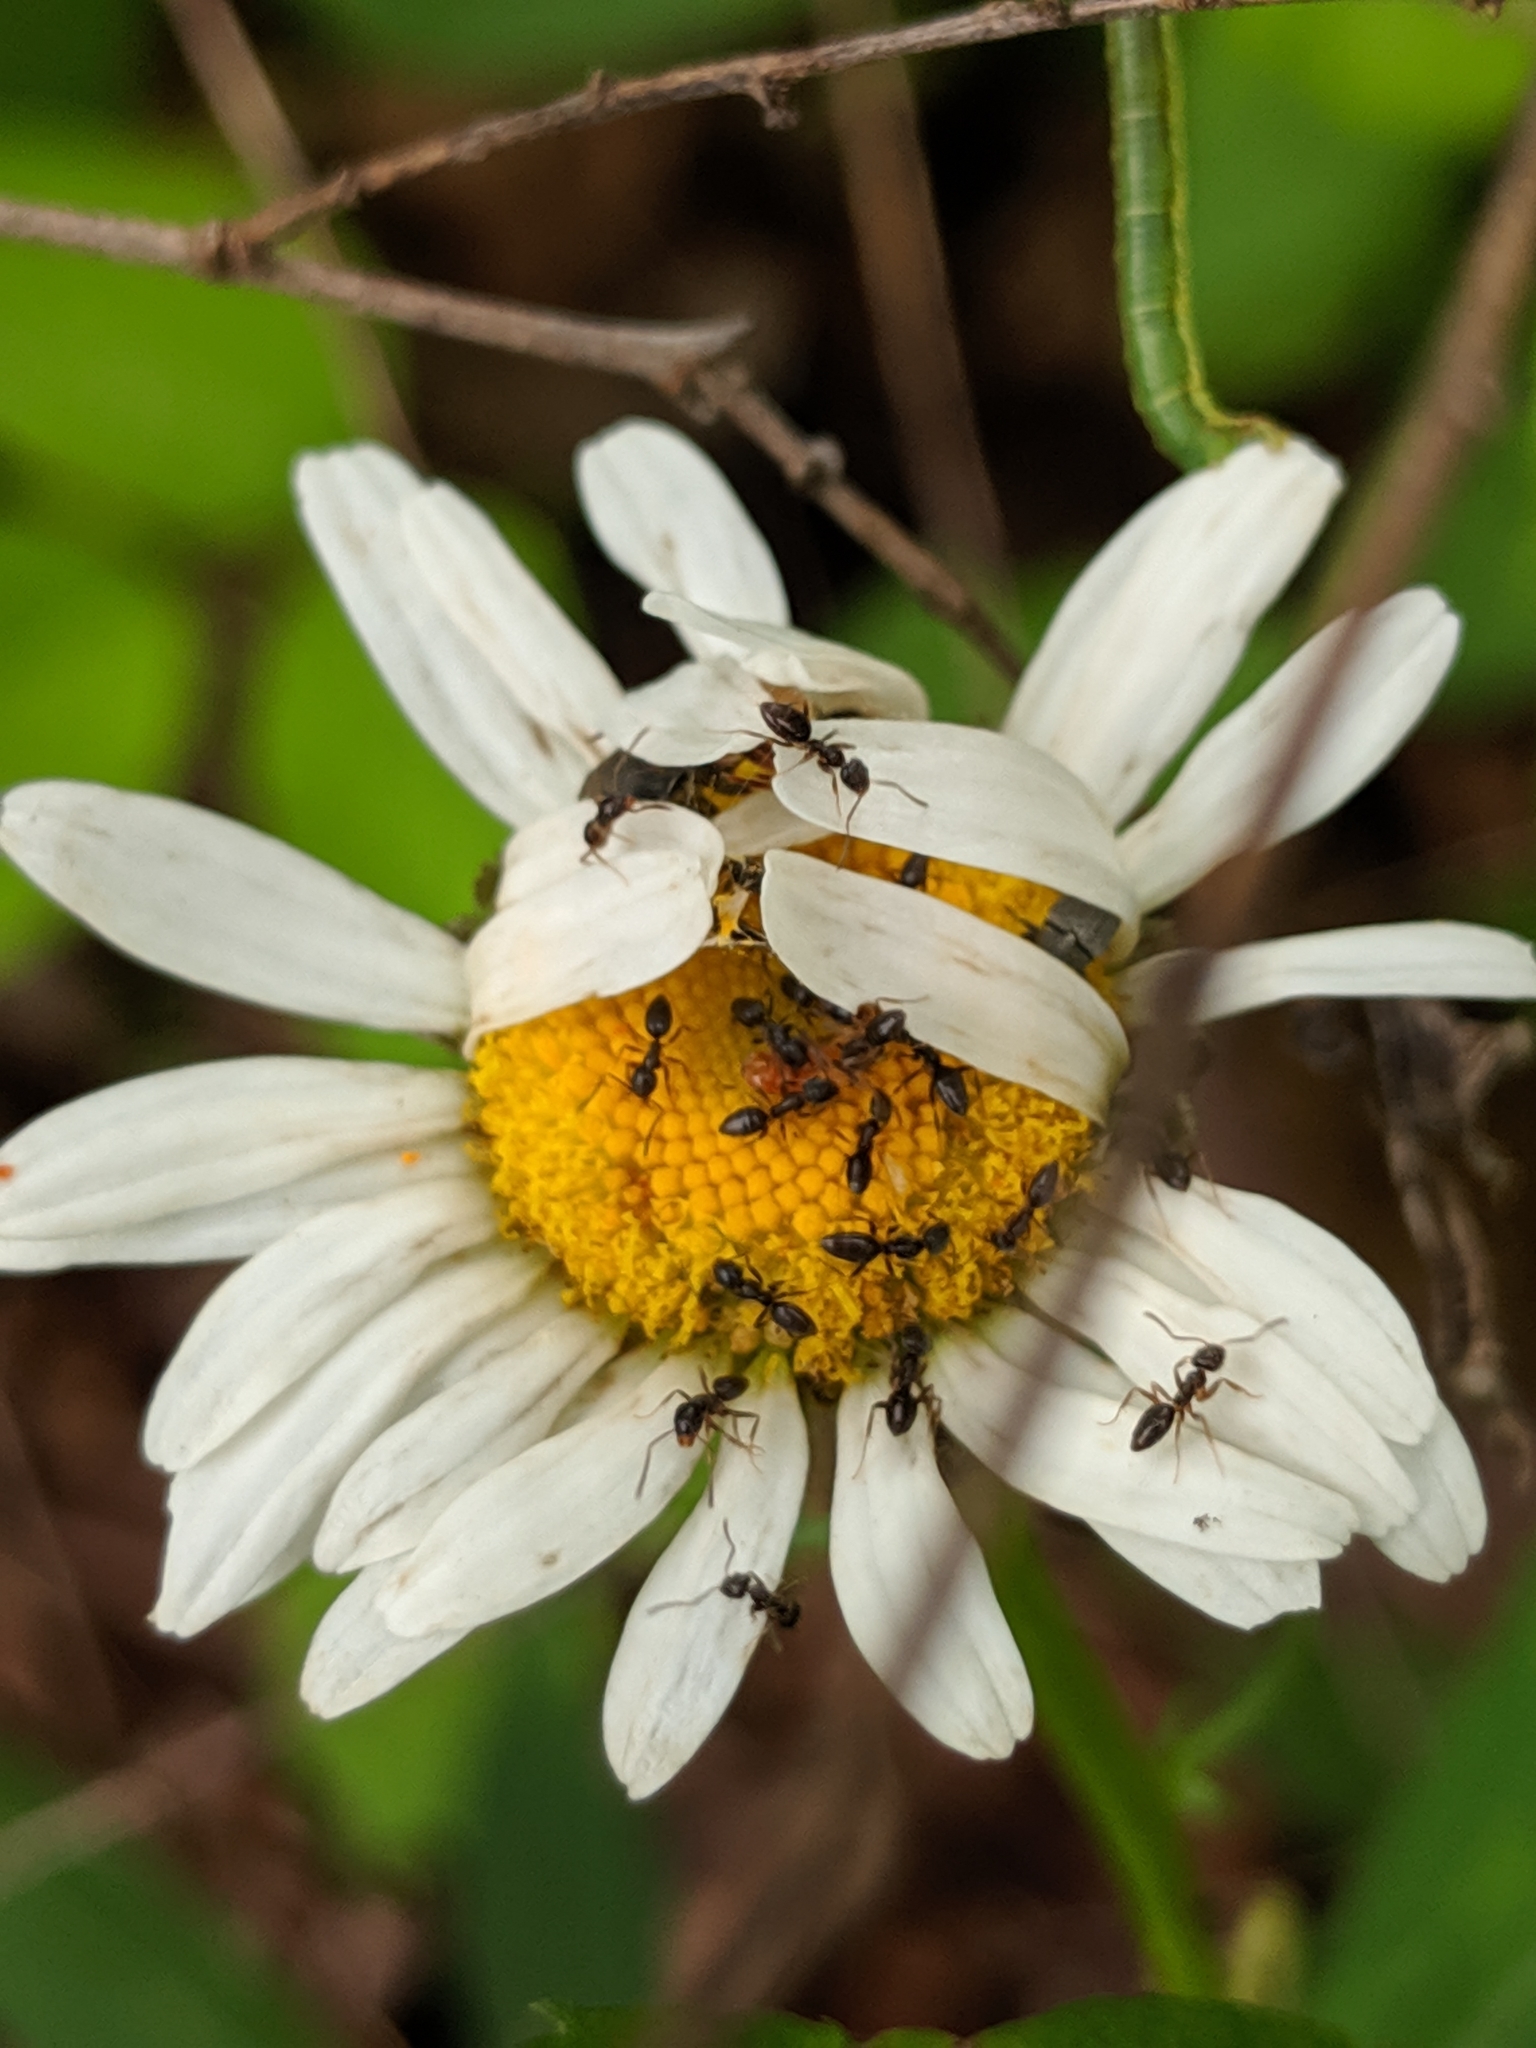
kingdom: Animalia
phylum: Arthropoda
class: Insecta
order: Hymenoptera
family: Formicidae
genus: Tapinoma
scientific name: Tapinoma sessile
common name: Odorous house ant
